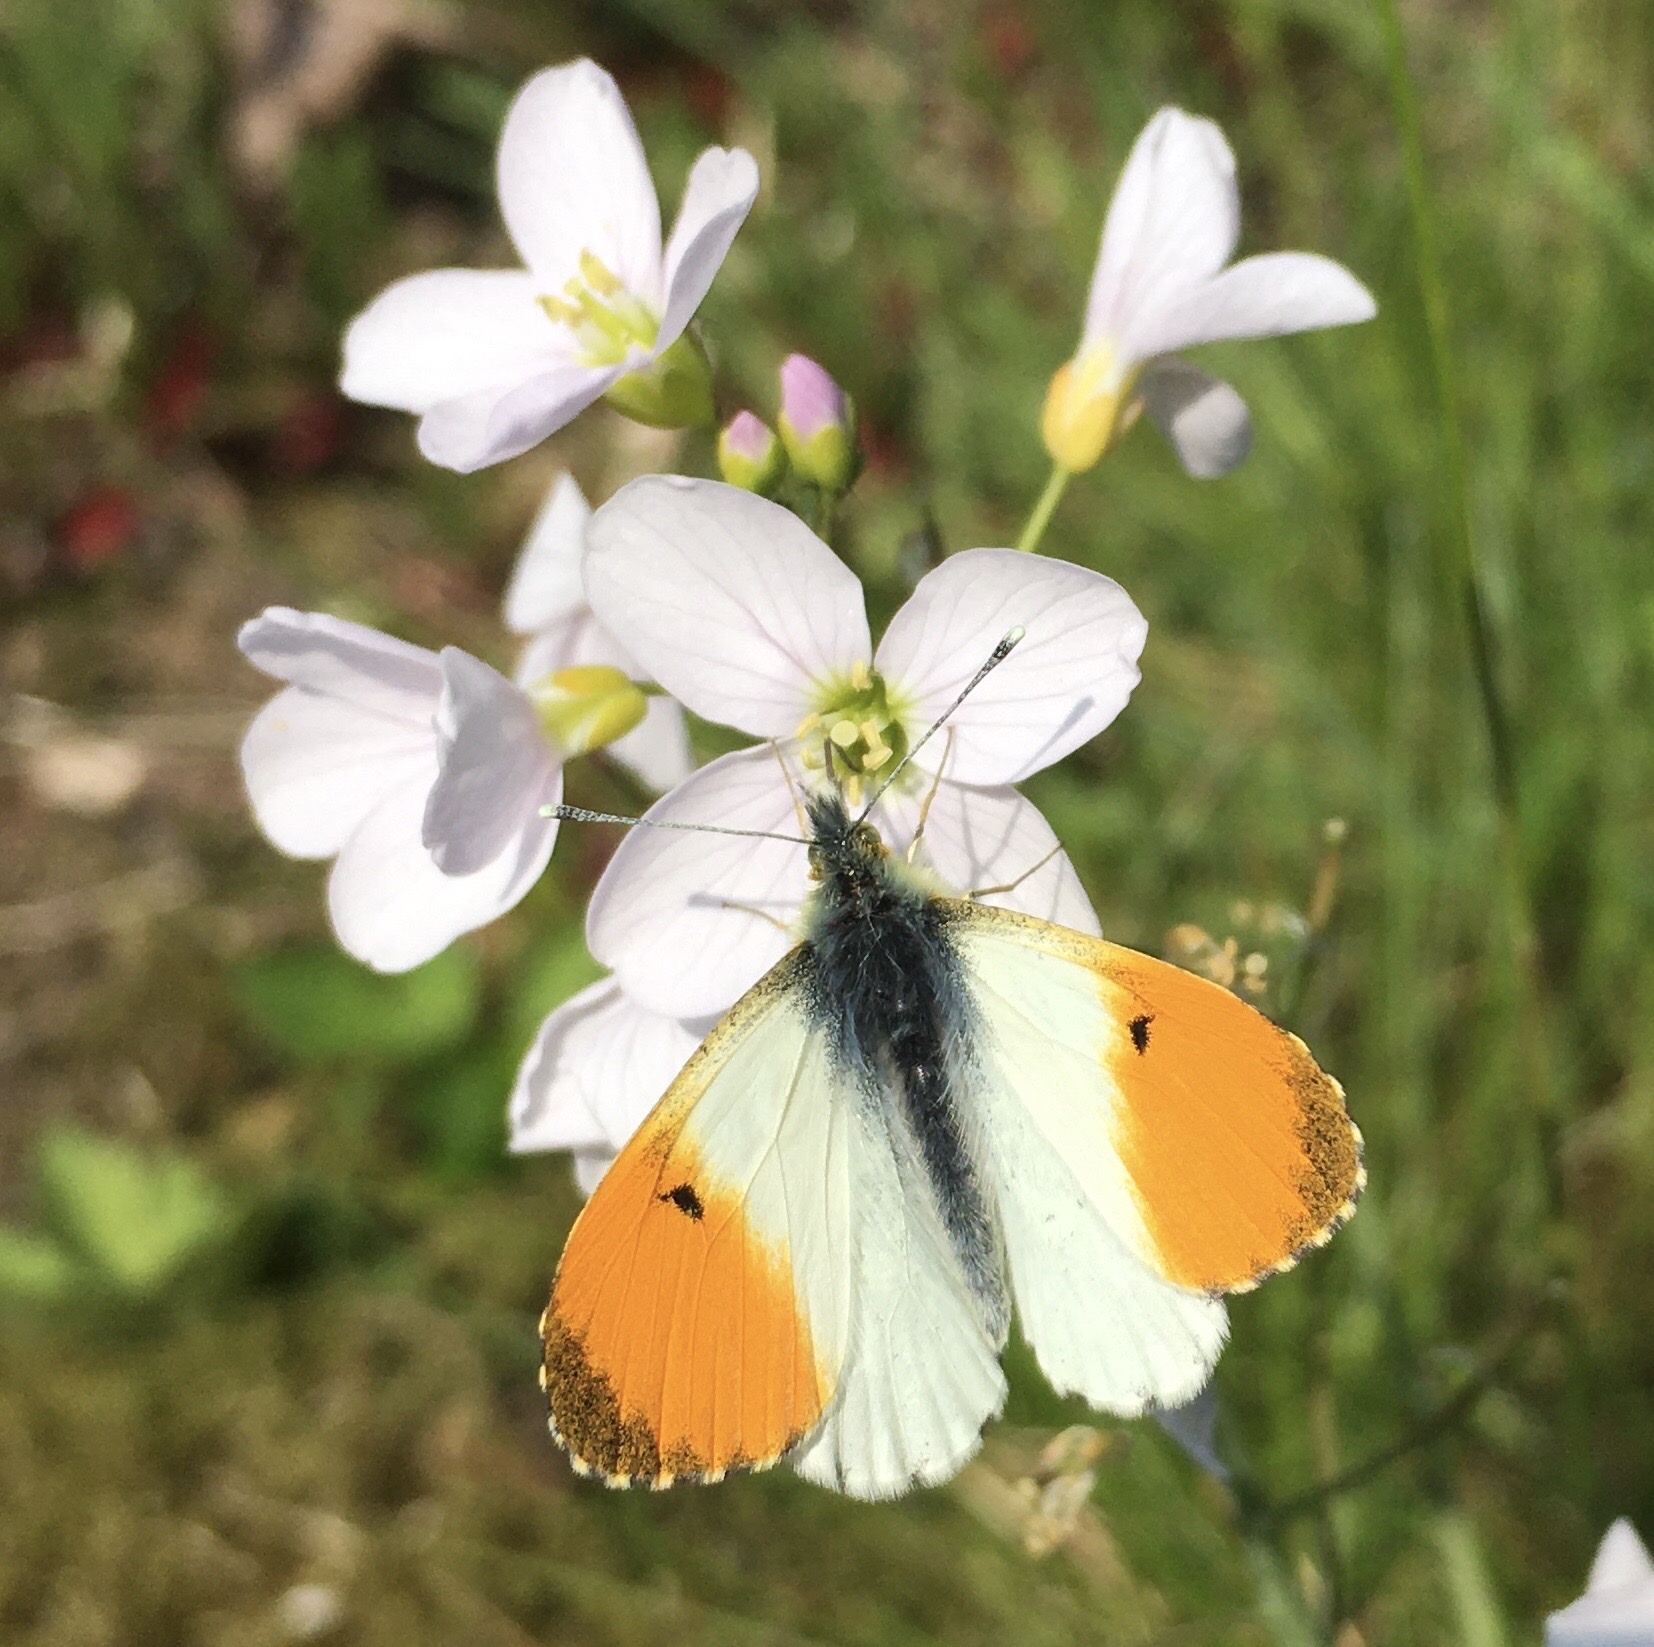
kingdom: Animalia
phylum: Arthropoda
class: Insecta
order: Lepidoptera
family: Pieridae
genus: Anthocharis
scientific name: Anthocharis cardamines
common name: Orange-tip
